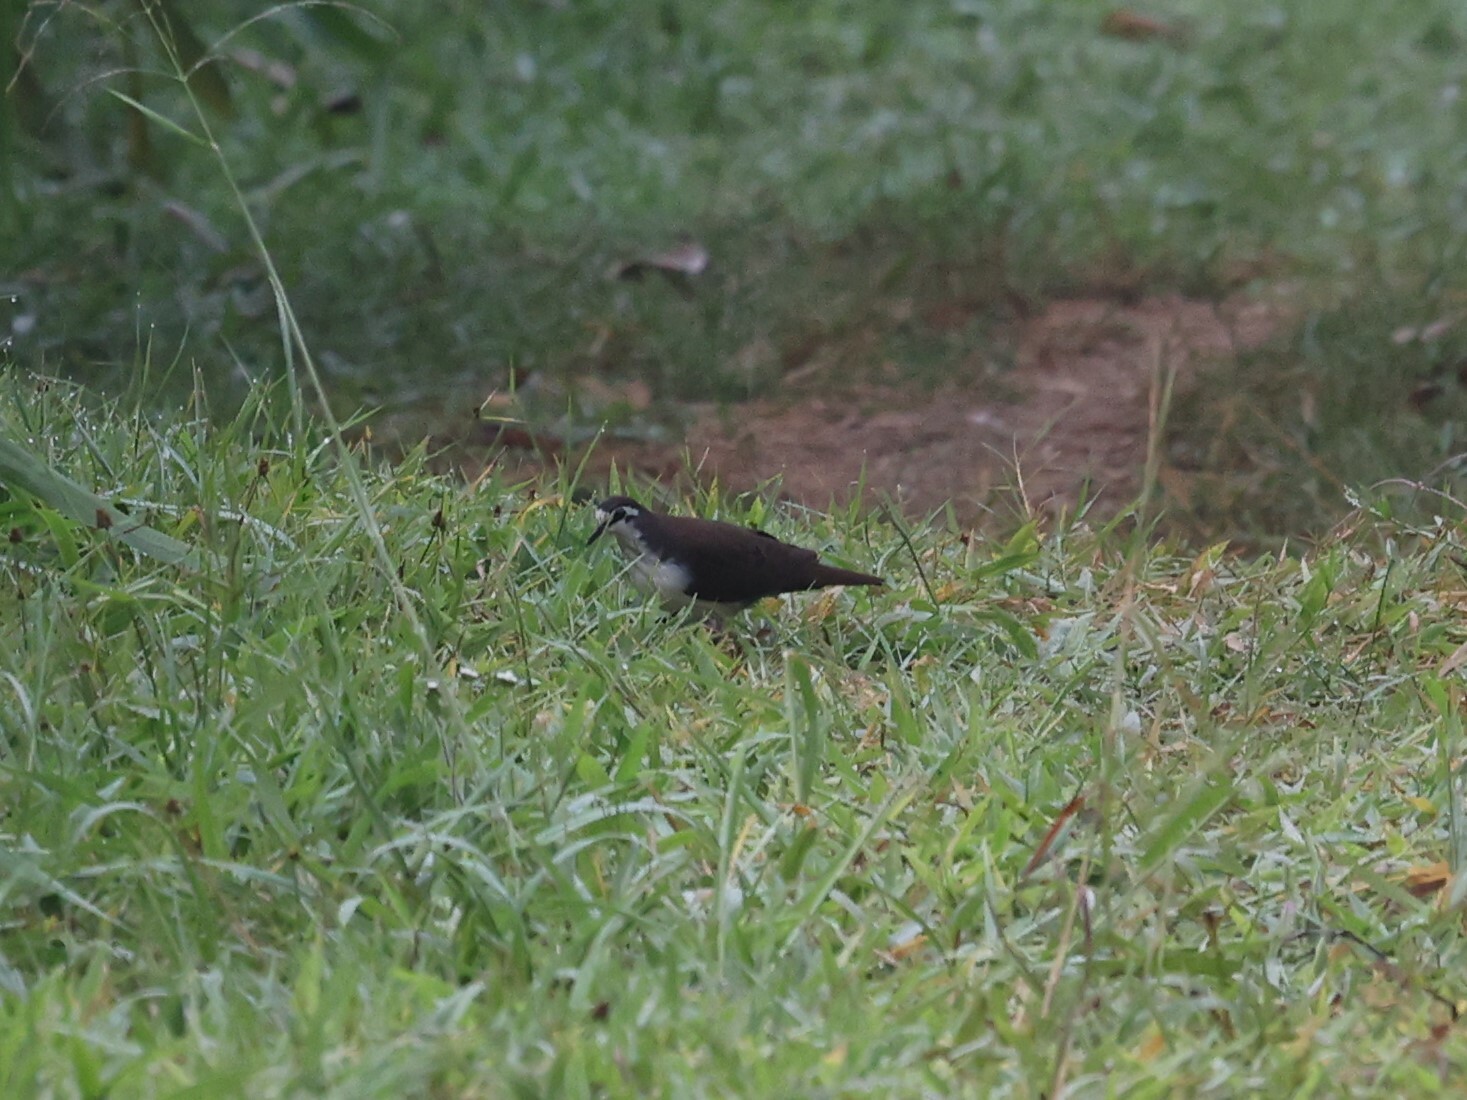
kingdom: Animalia
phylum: Chordata
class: Aves
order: Columbiformes
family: Columbidae
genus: Turtur
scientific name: Turtur tympanistria
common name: Tambourine dove
